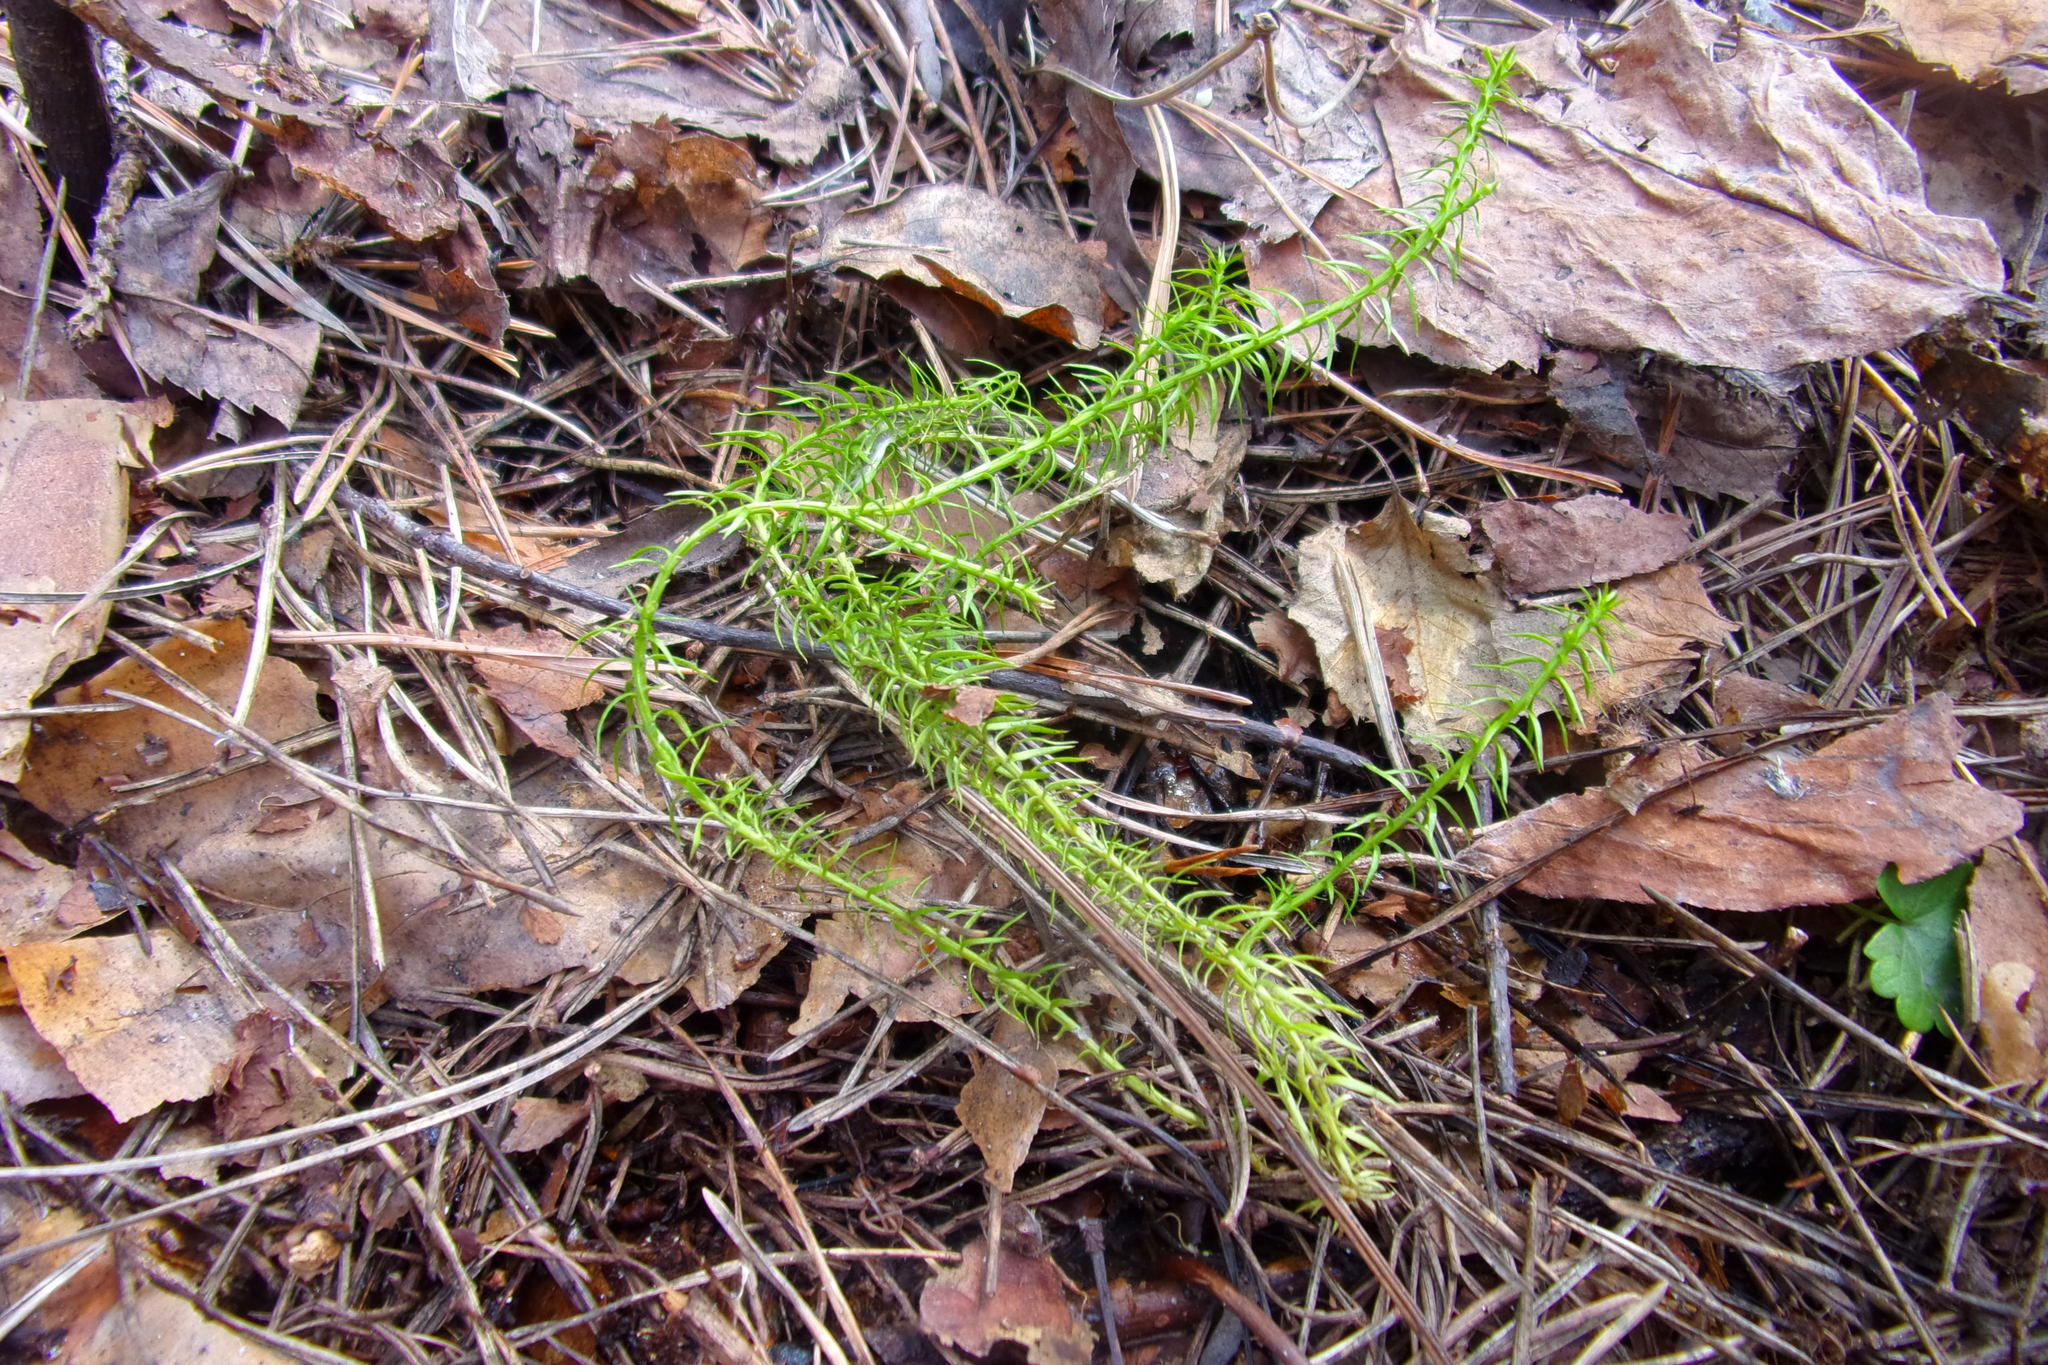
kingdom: Plantae
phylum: Tracheophyta
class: Lycopodiopsida
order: Lycopodiales
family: Lycopodiaceae
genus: Spinulum
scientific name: Spinulum annotinum
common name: Interrupted club-moss
